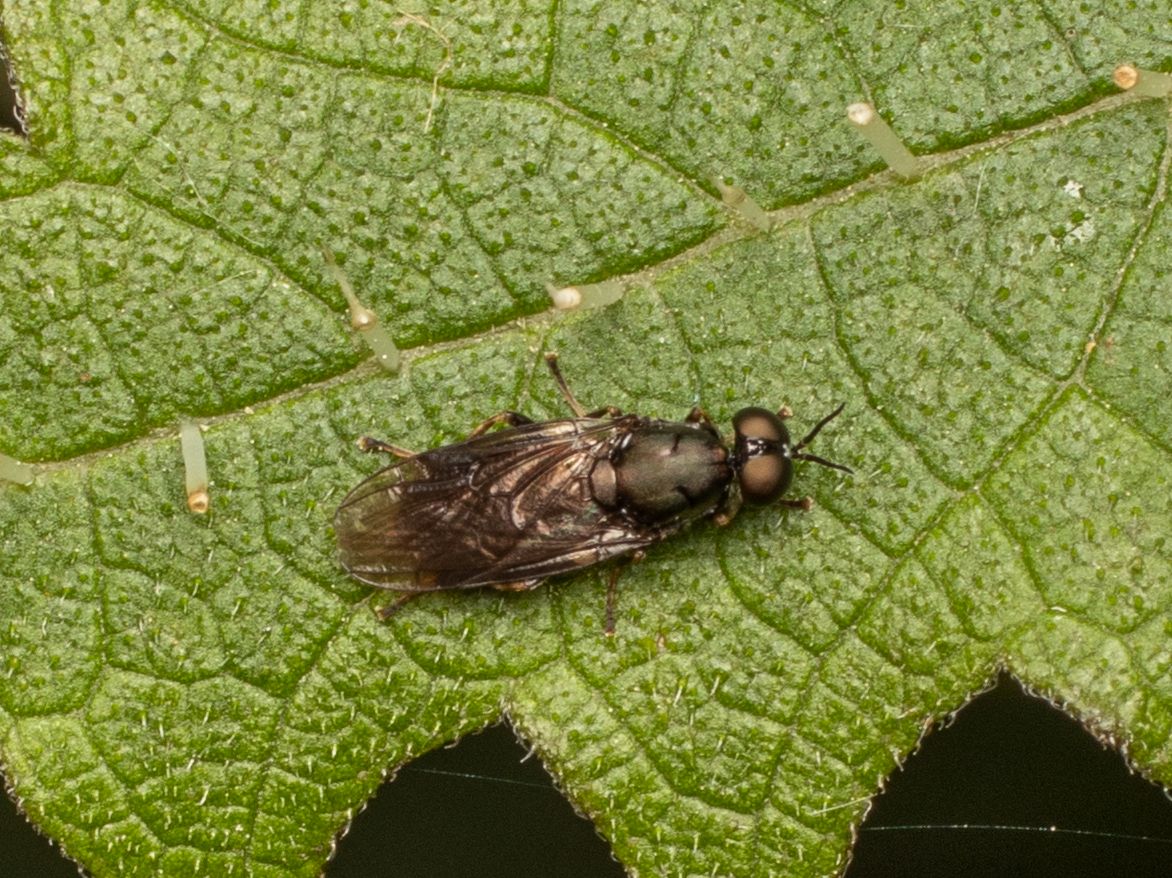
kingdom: Animalia
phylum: Arthropoda
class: Insecta
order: Diptera
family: Stratiomyidae
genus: Zealandoberis
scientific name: Zealandoberis violacea
